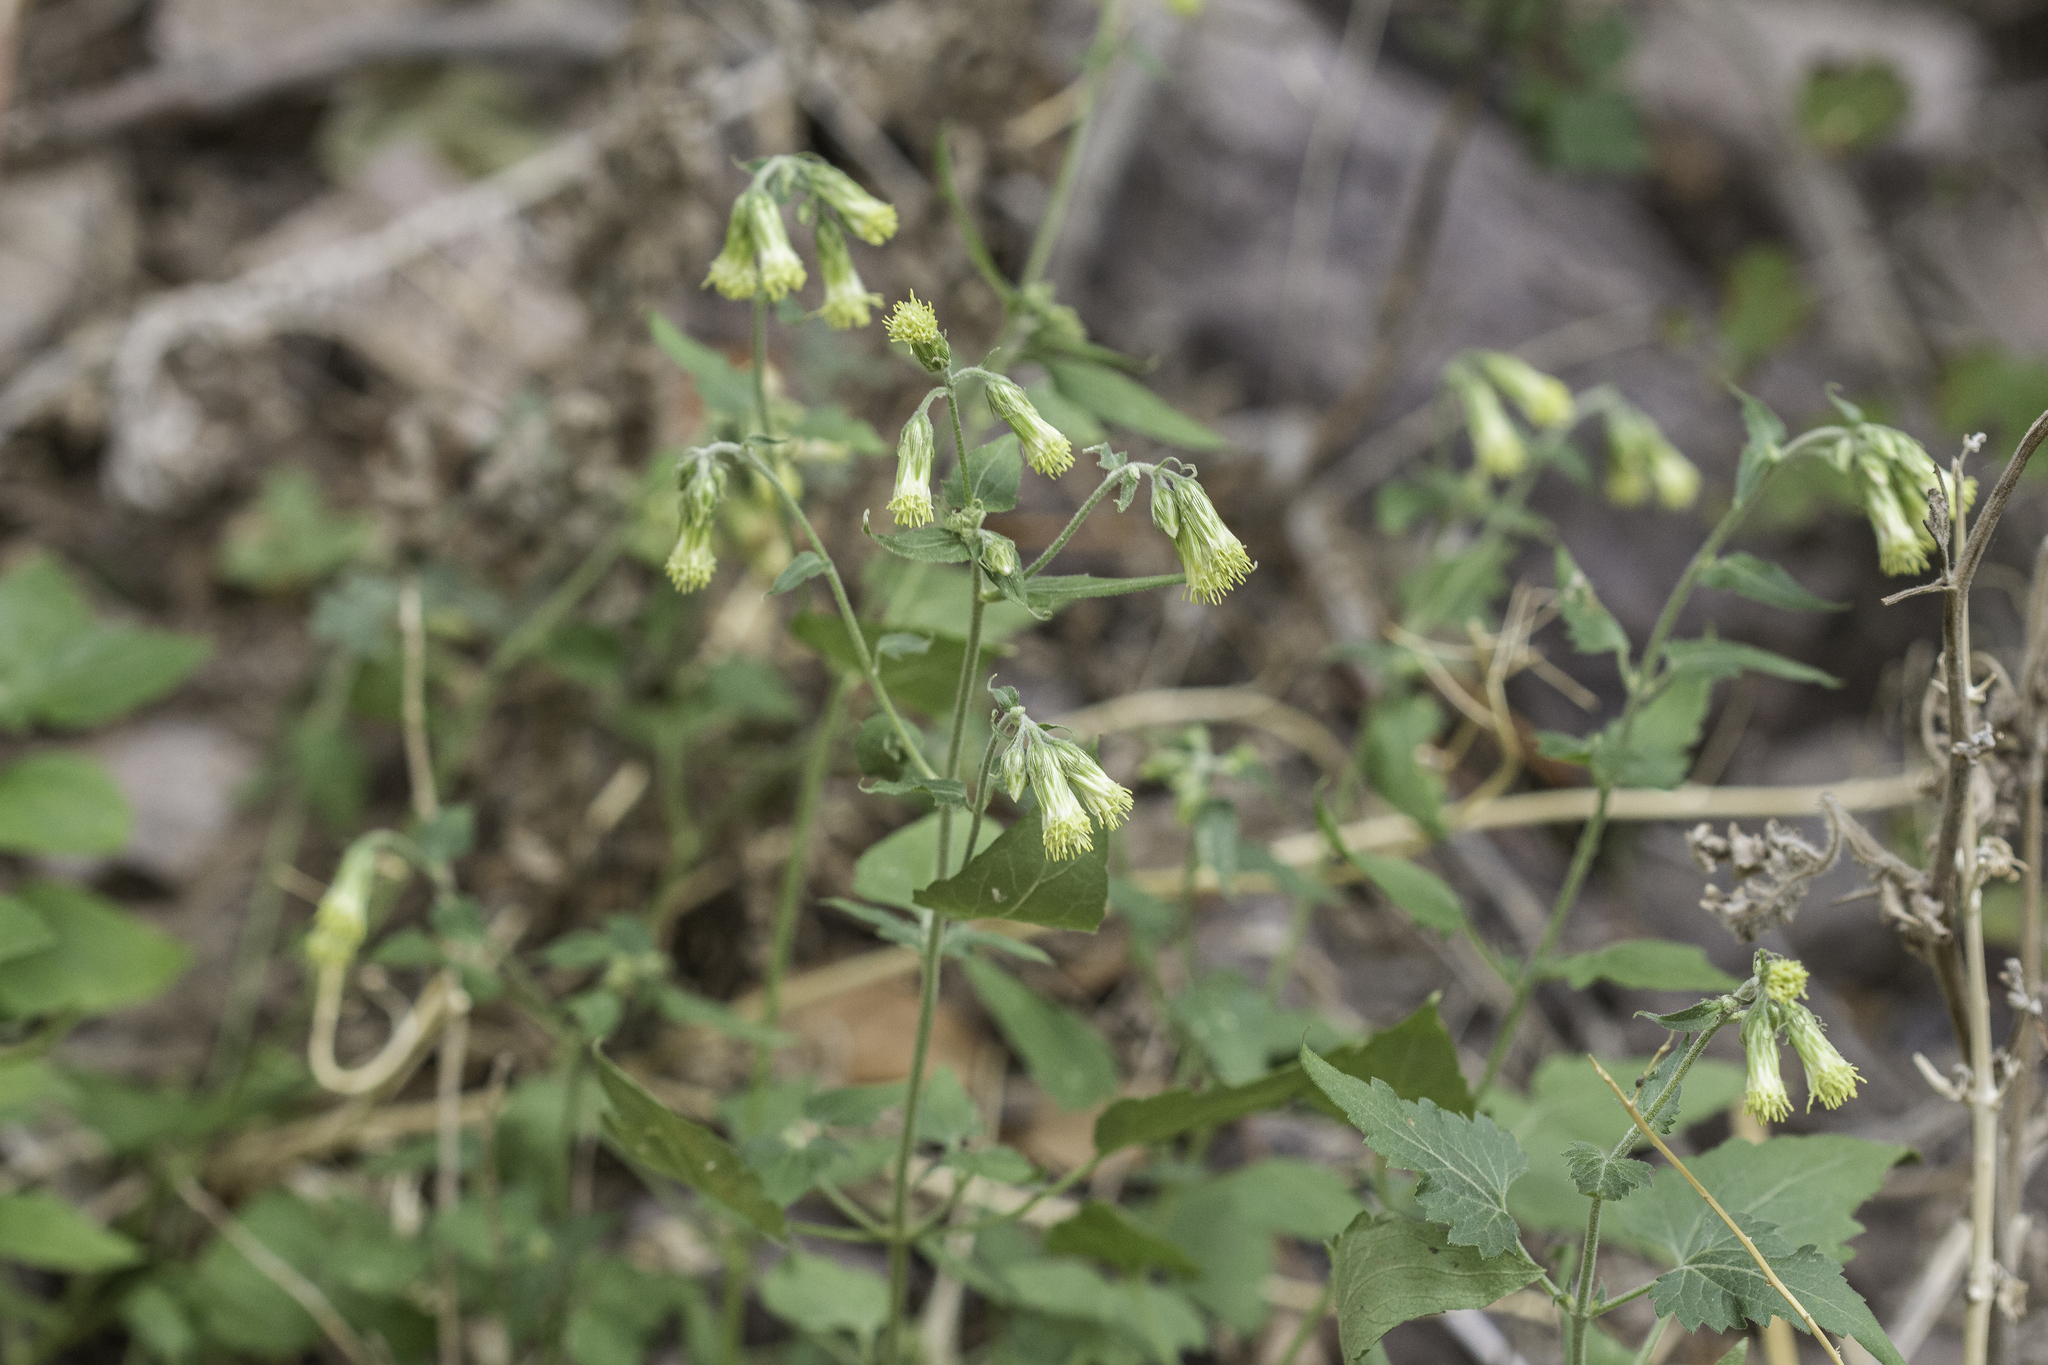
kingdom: Plantae
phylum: Tracheophyta
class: Magnoliopsida
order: Asterales
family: Asteraceae
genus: Brickellia
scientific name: Brickellia grandiflora
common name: Large-flowered brickellia
